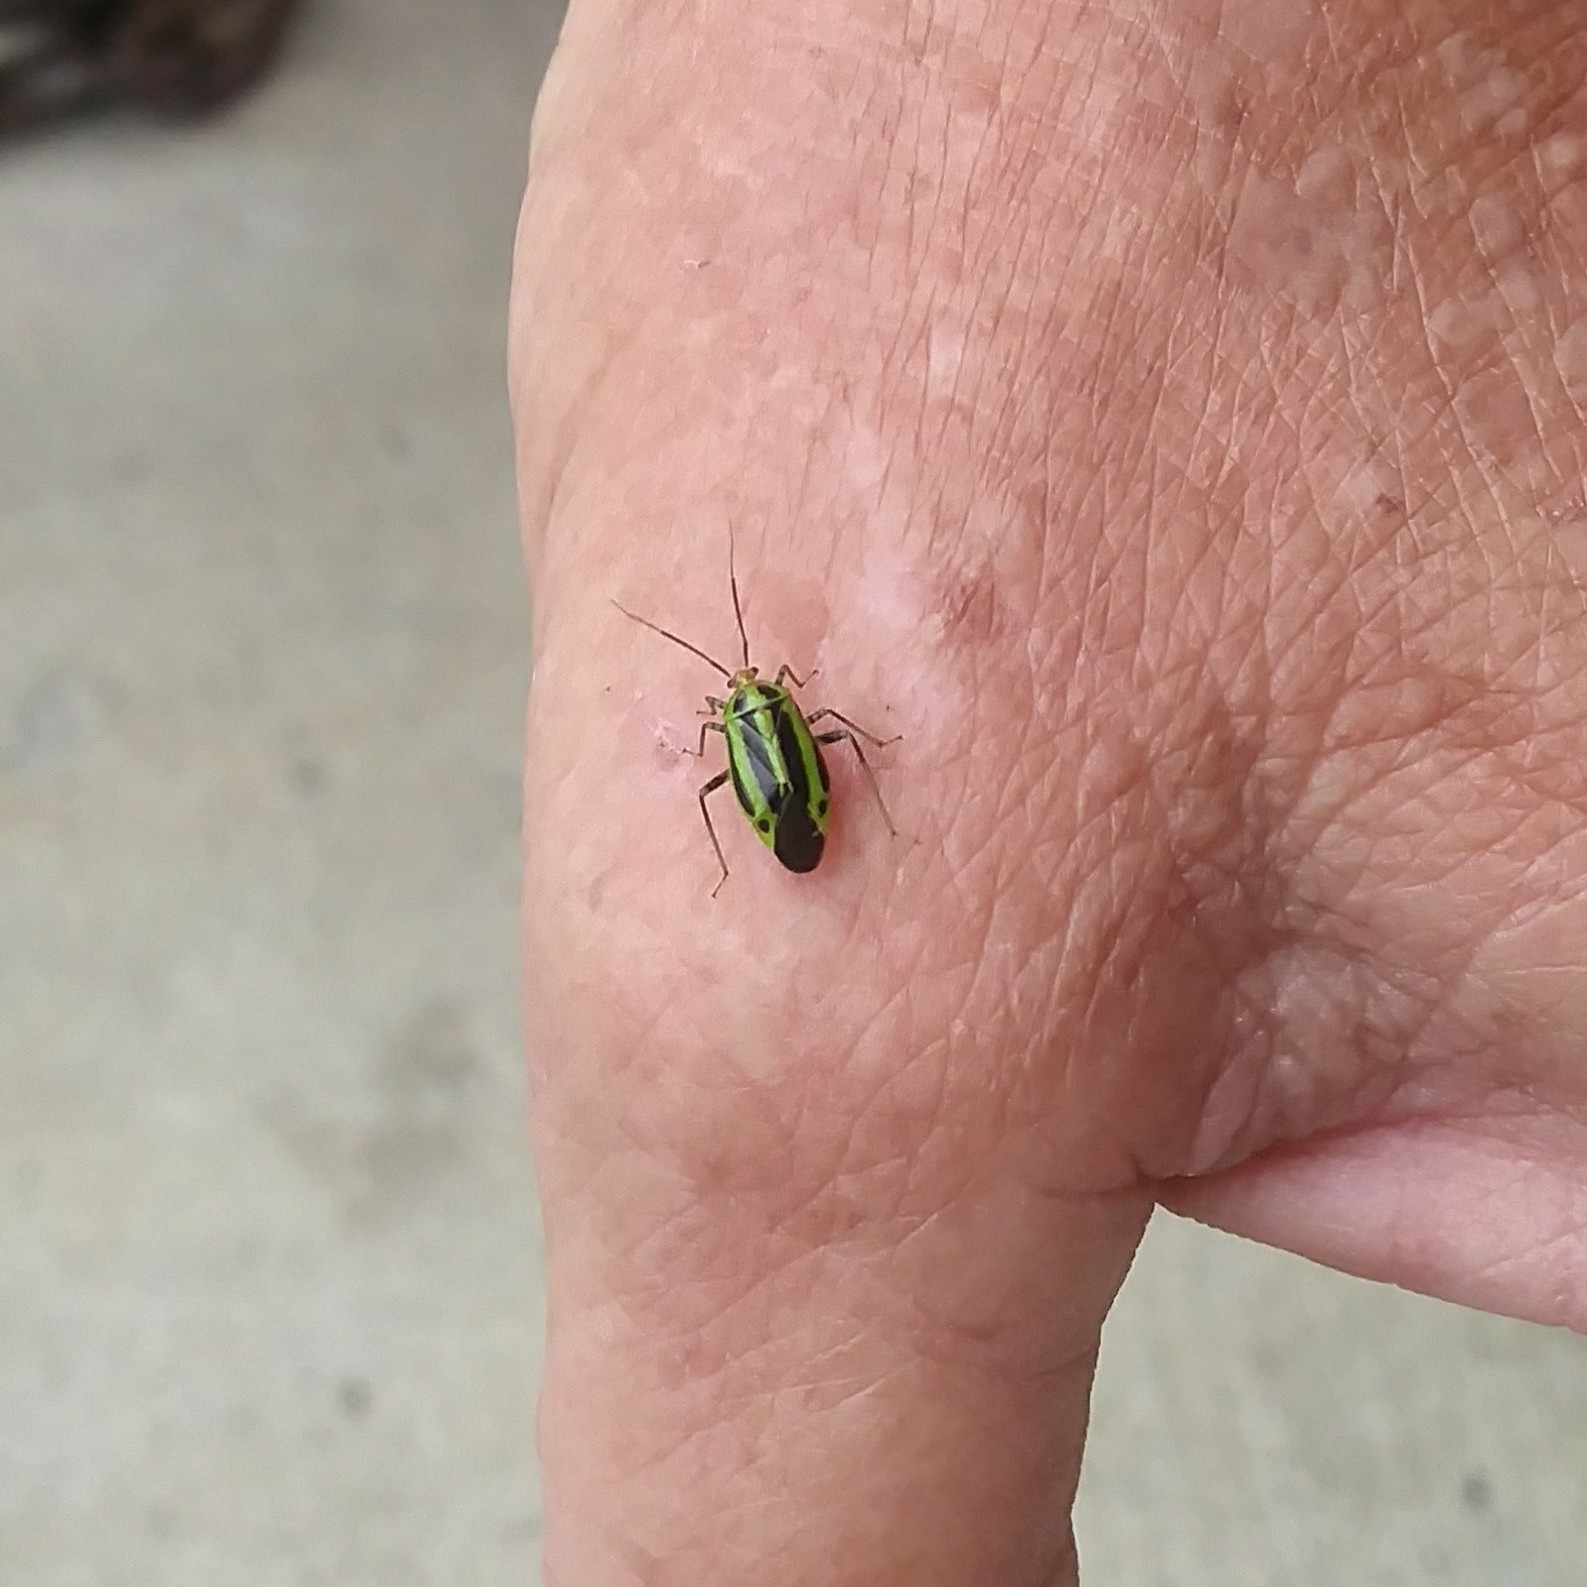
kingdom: Animalia
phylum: Arthropoda
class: Insecta
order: Hemiptera
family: Miridae
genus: Poecilocapsus
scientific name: Poecilocapsus lineatus
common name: Four-lined plant bug
